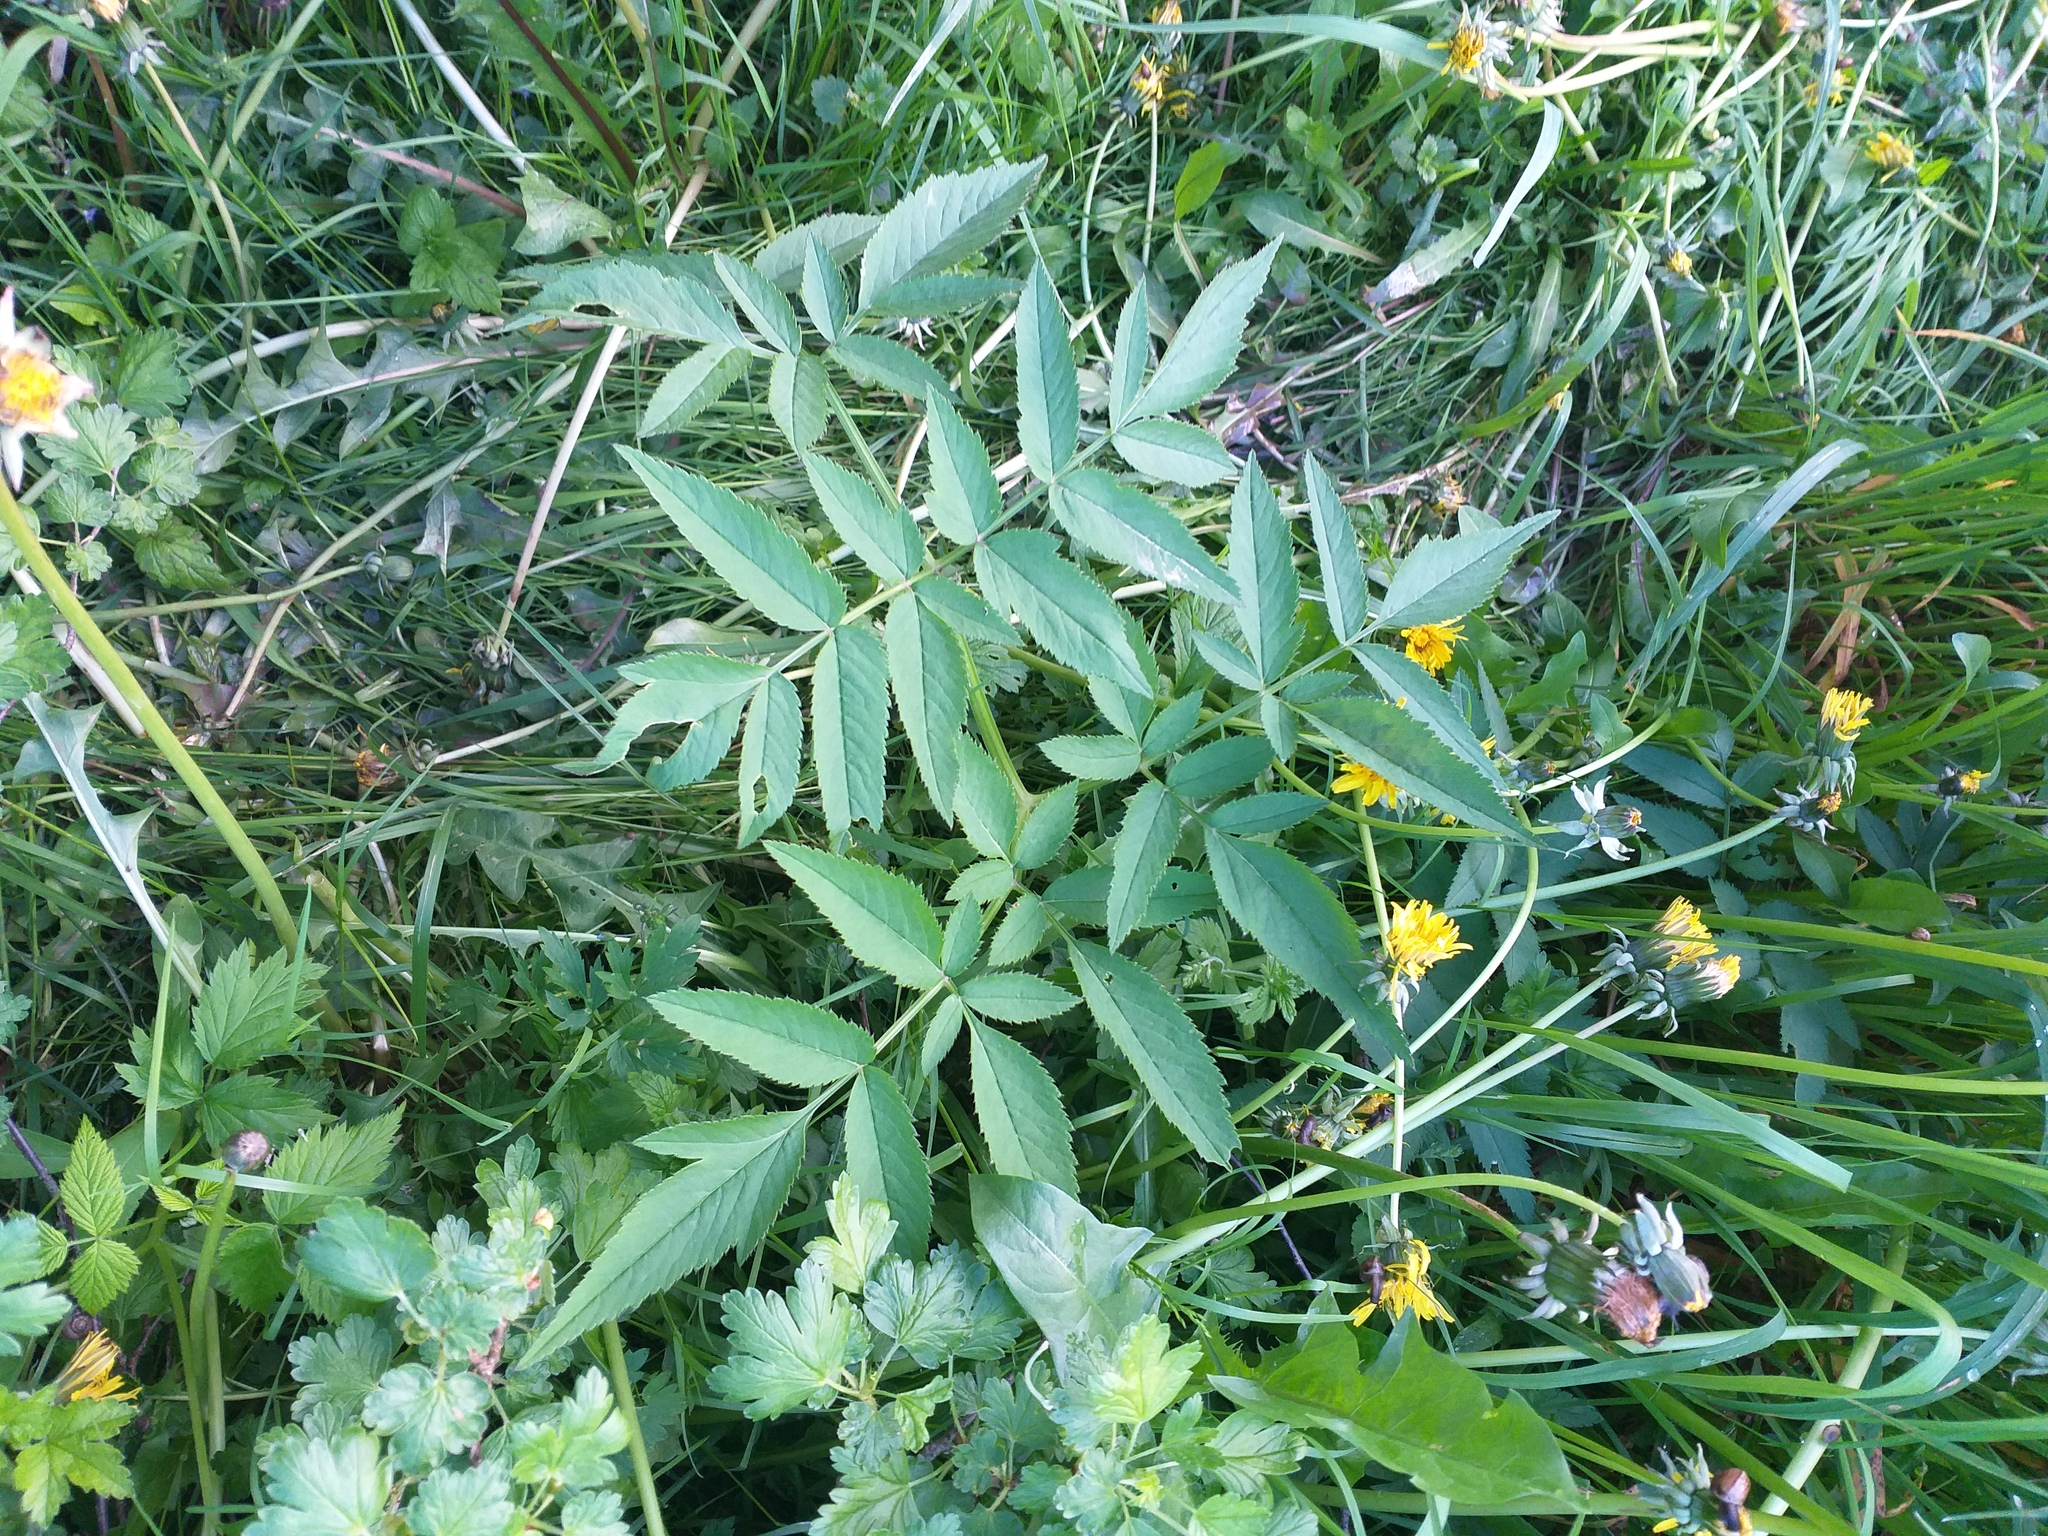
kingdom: Plantae
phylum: Tracheophyta
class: Magnoliopsida
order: Apiales
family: Apiaceae
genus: Angelica
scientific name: Angelica sylvestris
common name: Wild angelica
